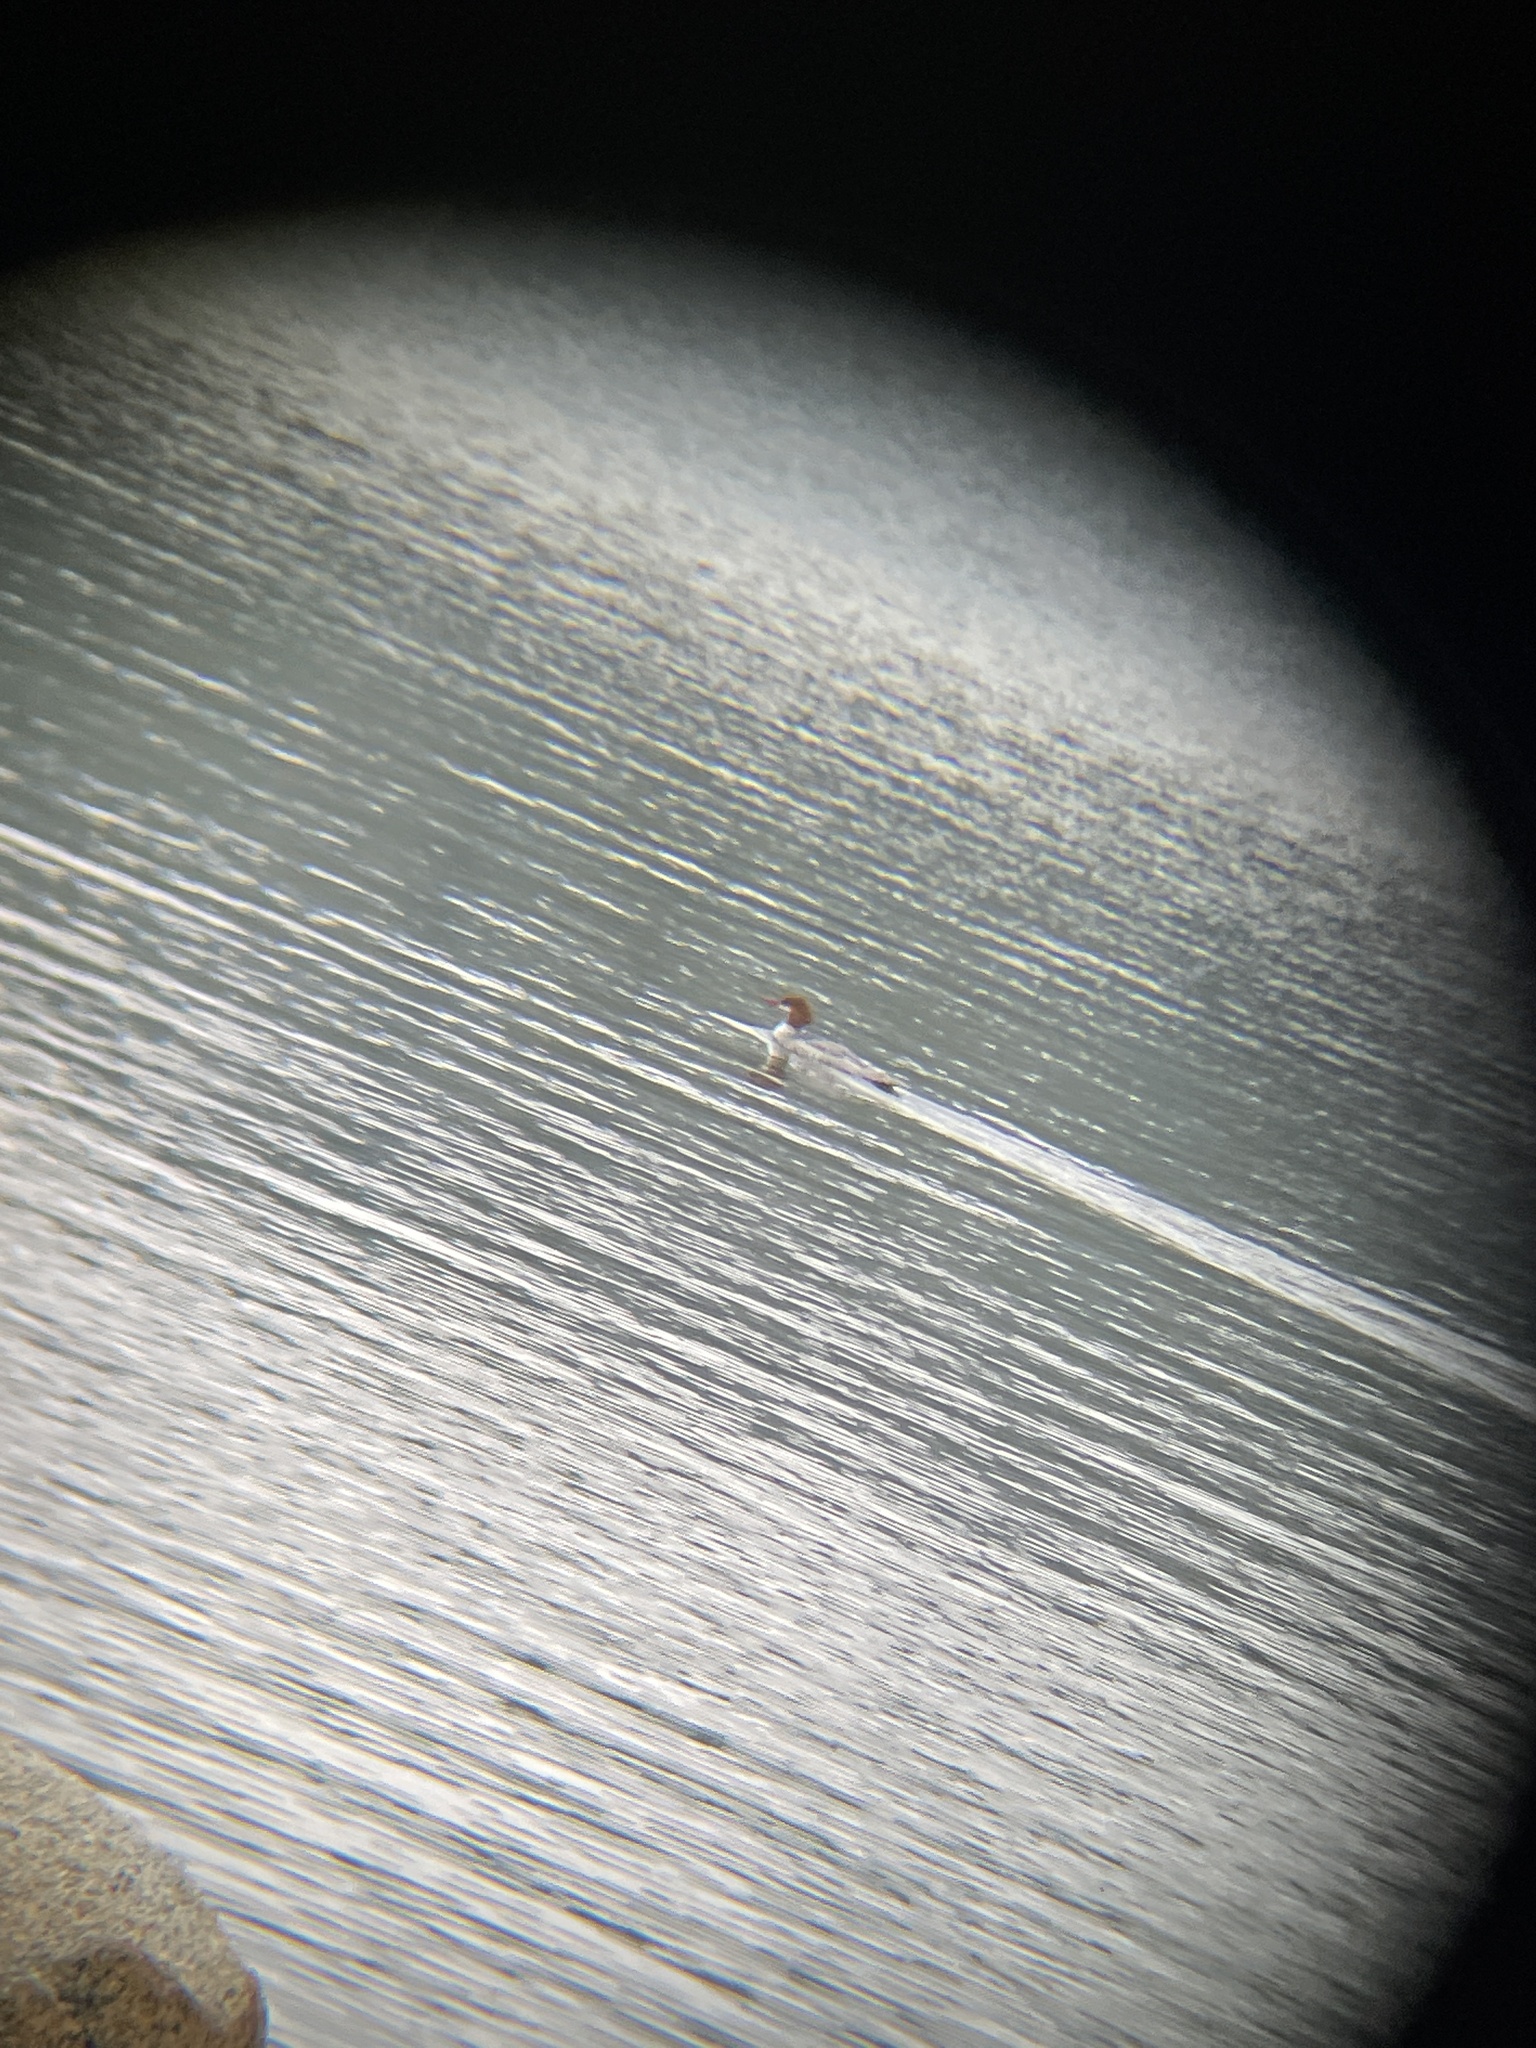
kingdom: Animalia
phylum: Chordata
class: Aves
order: Anseriformes
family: Anatidae
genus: Mergus
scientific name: Mergus merganser
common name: Common merganser
